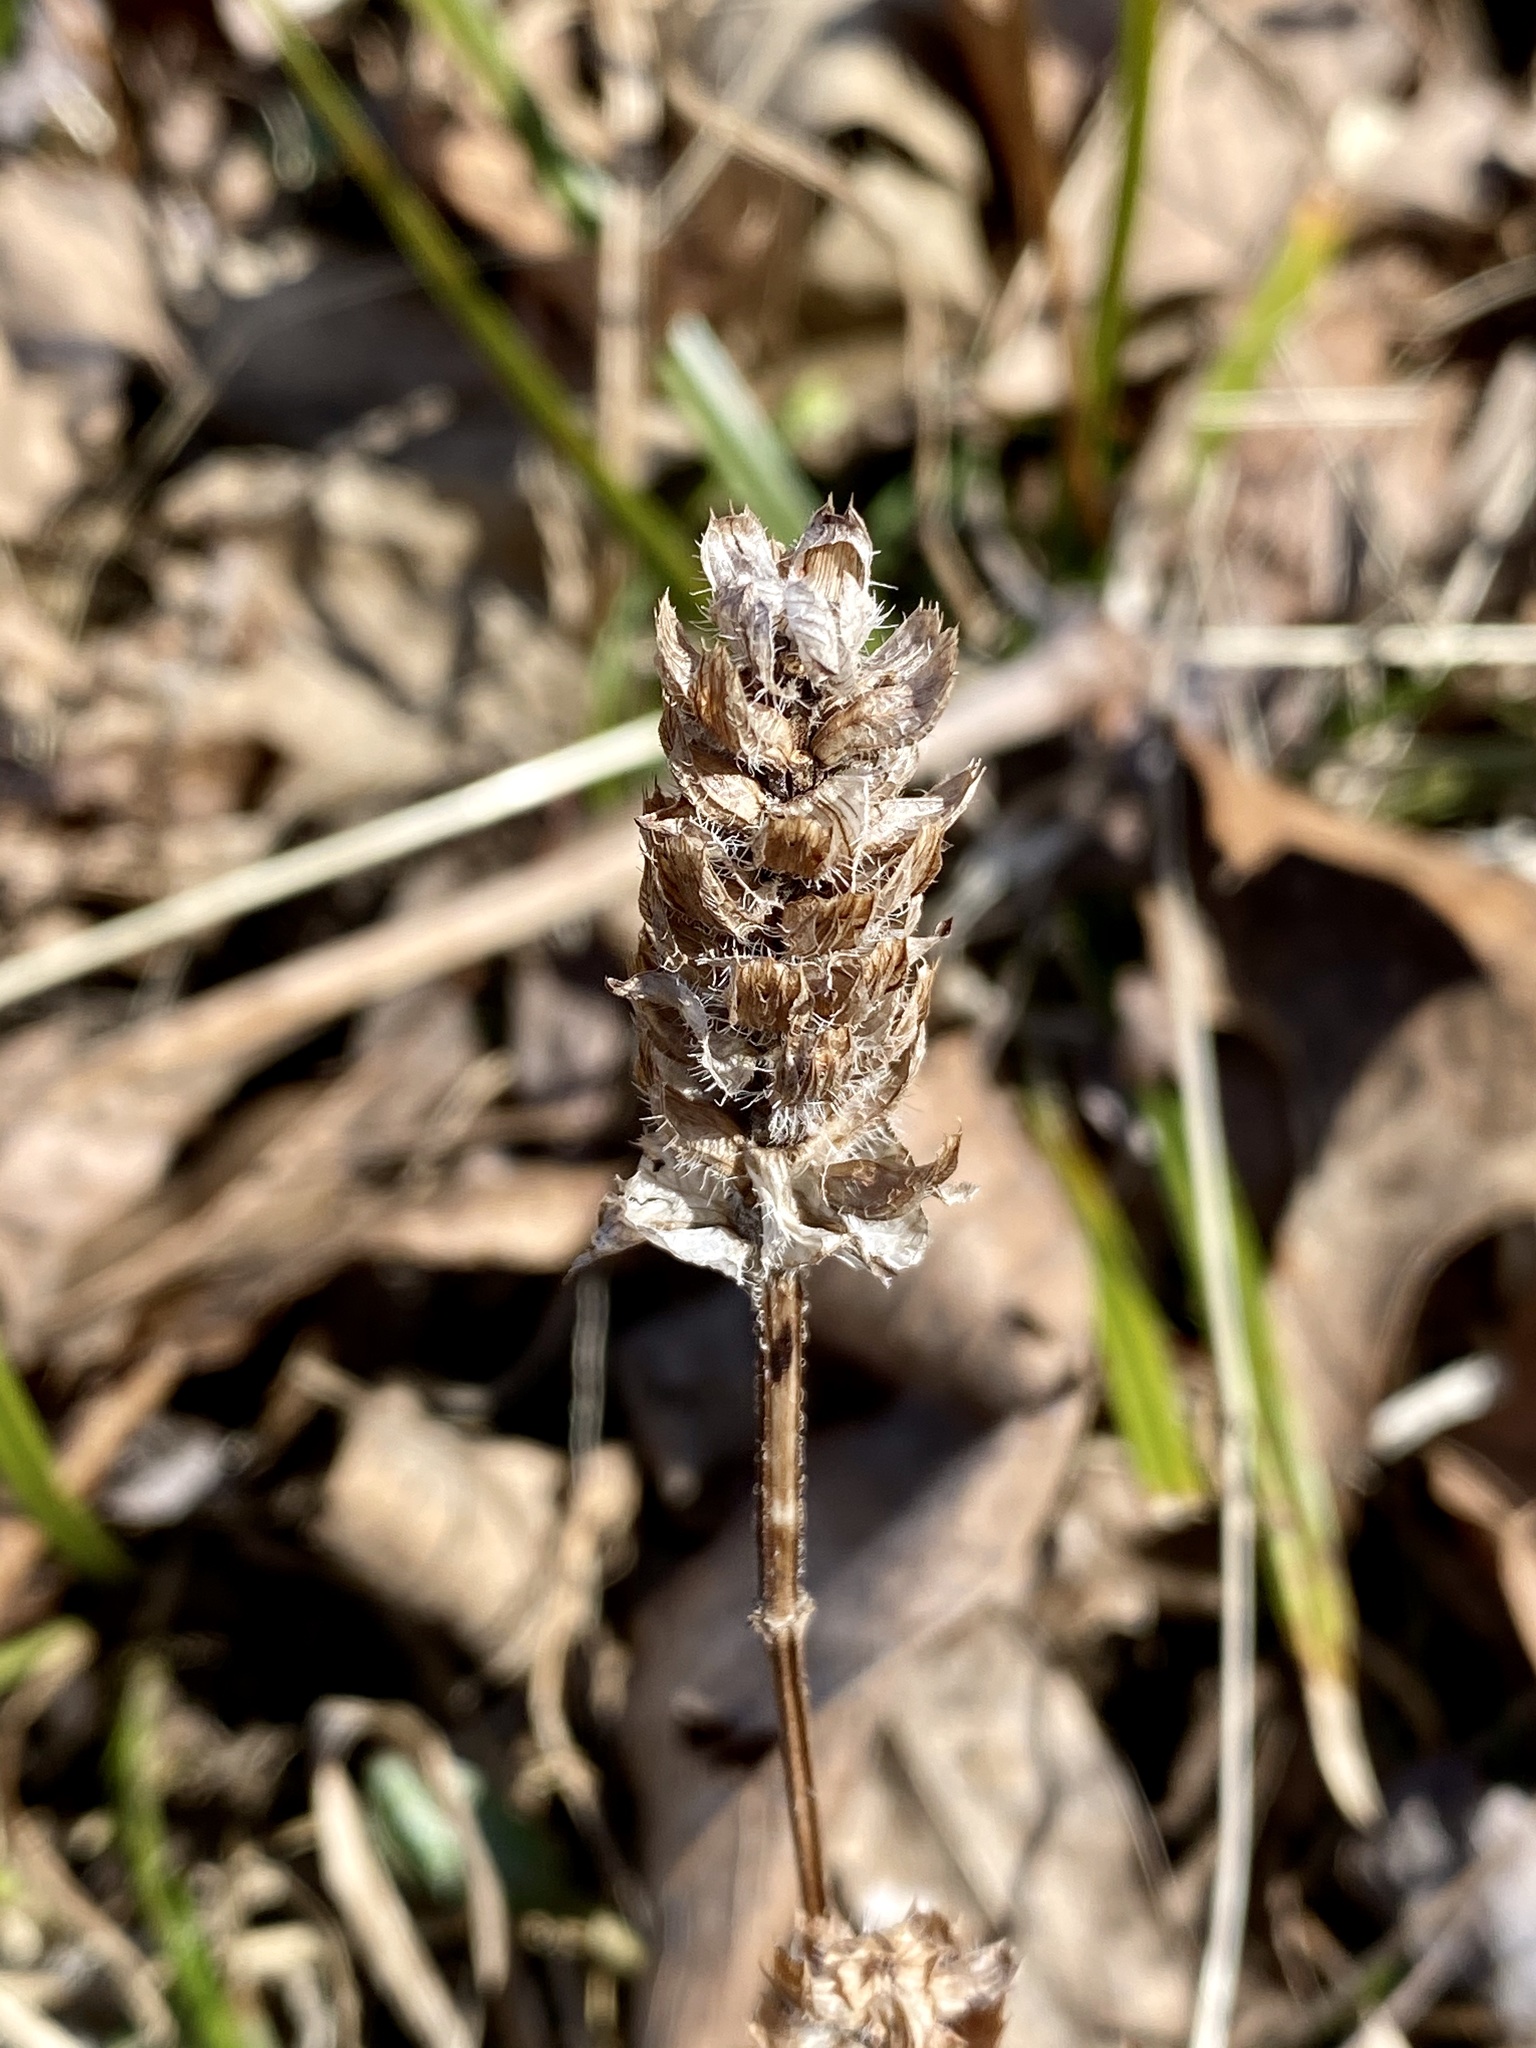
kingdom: Plantae
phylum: Tracheophyta
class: Magnoliopsida
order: Lamiales
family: Lamiaceae
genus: Prunella
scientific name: Prunella vulgaris
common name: Heal-all
